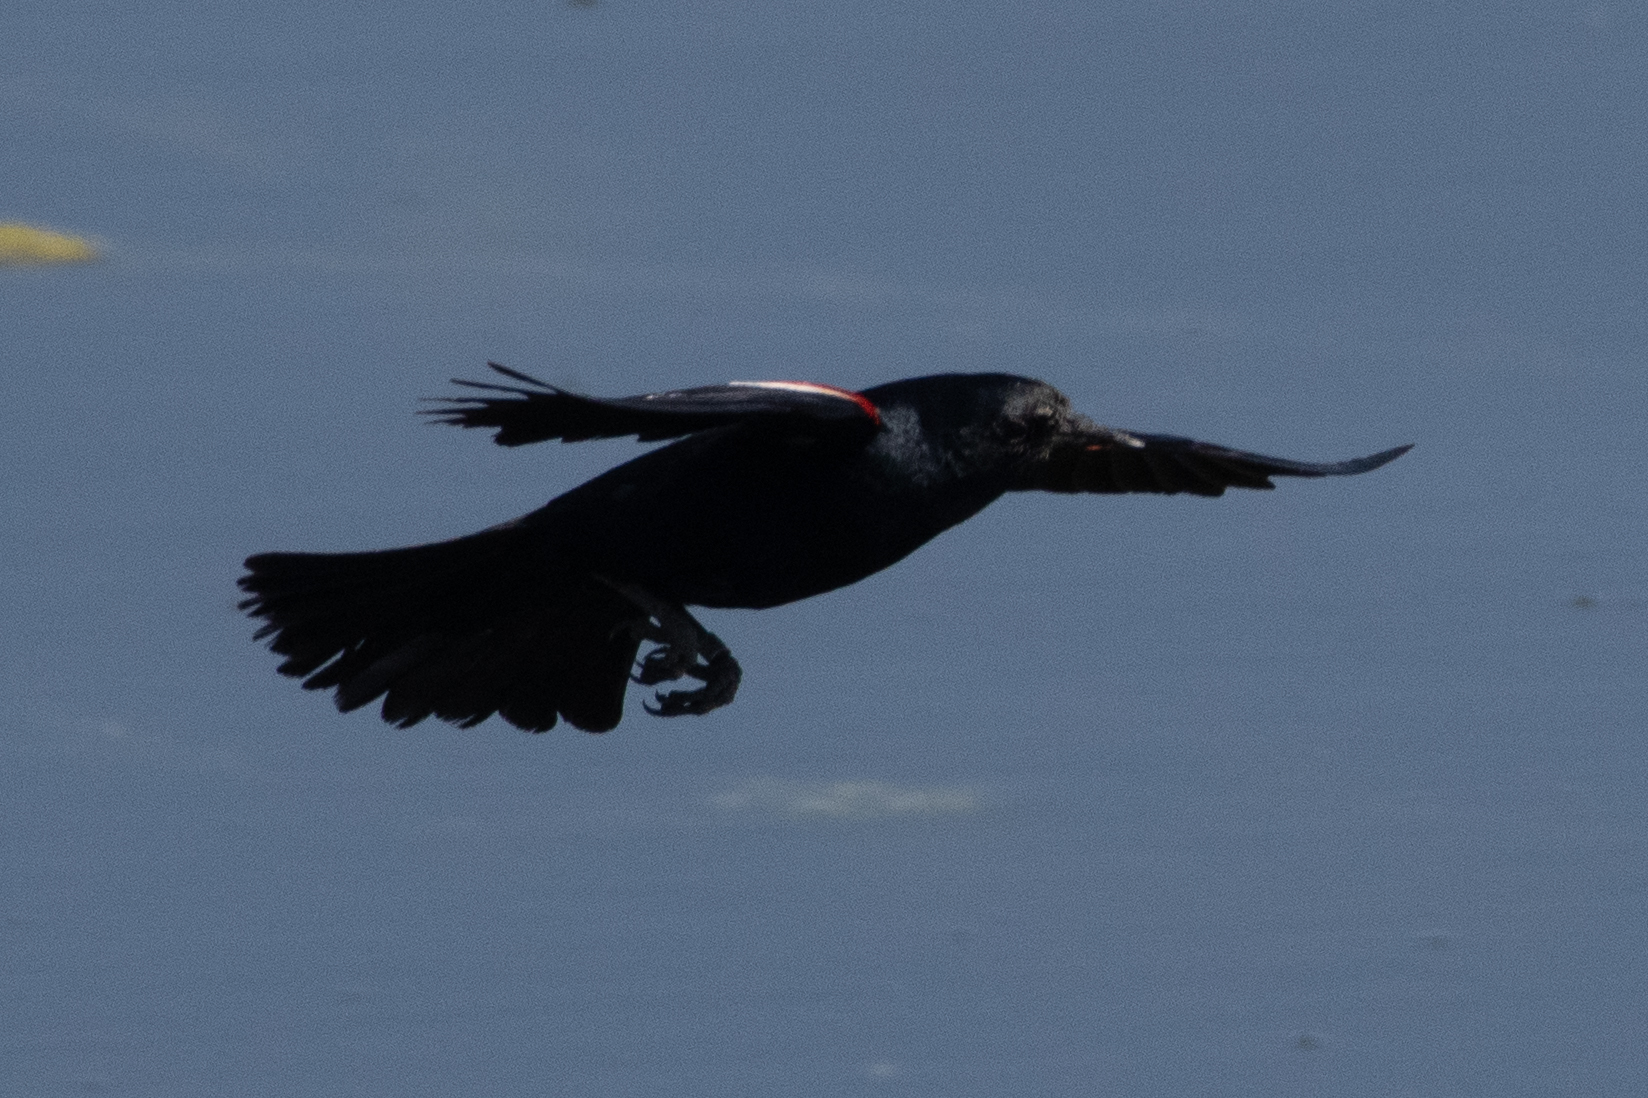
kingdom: Animalia
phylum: Chordata
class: Aves
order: Passeriformes
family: Icteridae
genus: Agelaius
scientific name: Agelaius tricolor
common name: Tricolored blackbird
